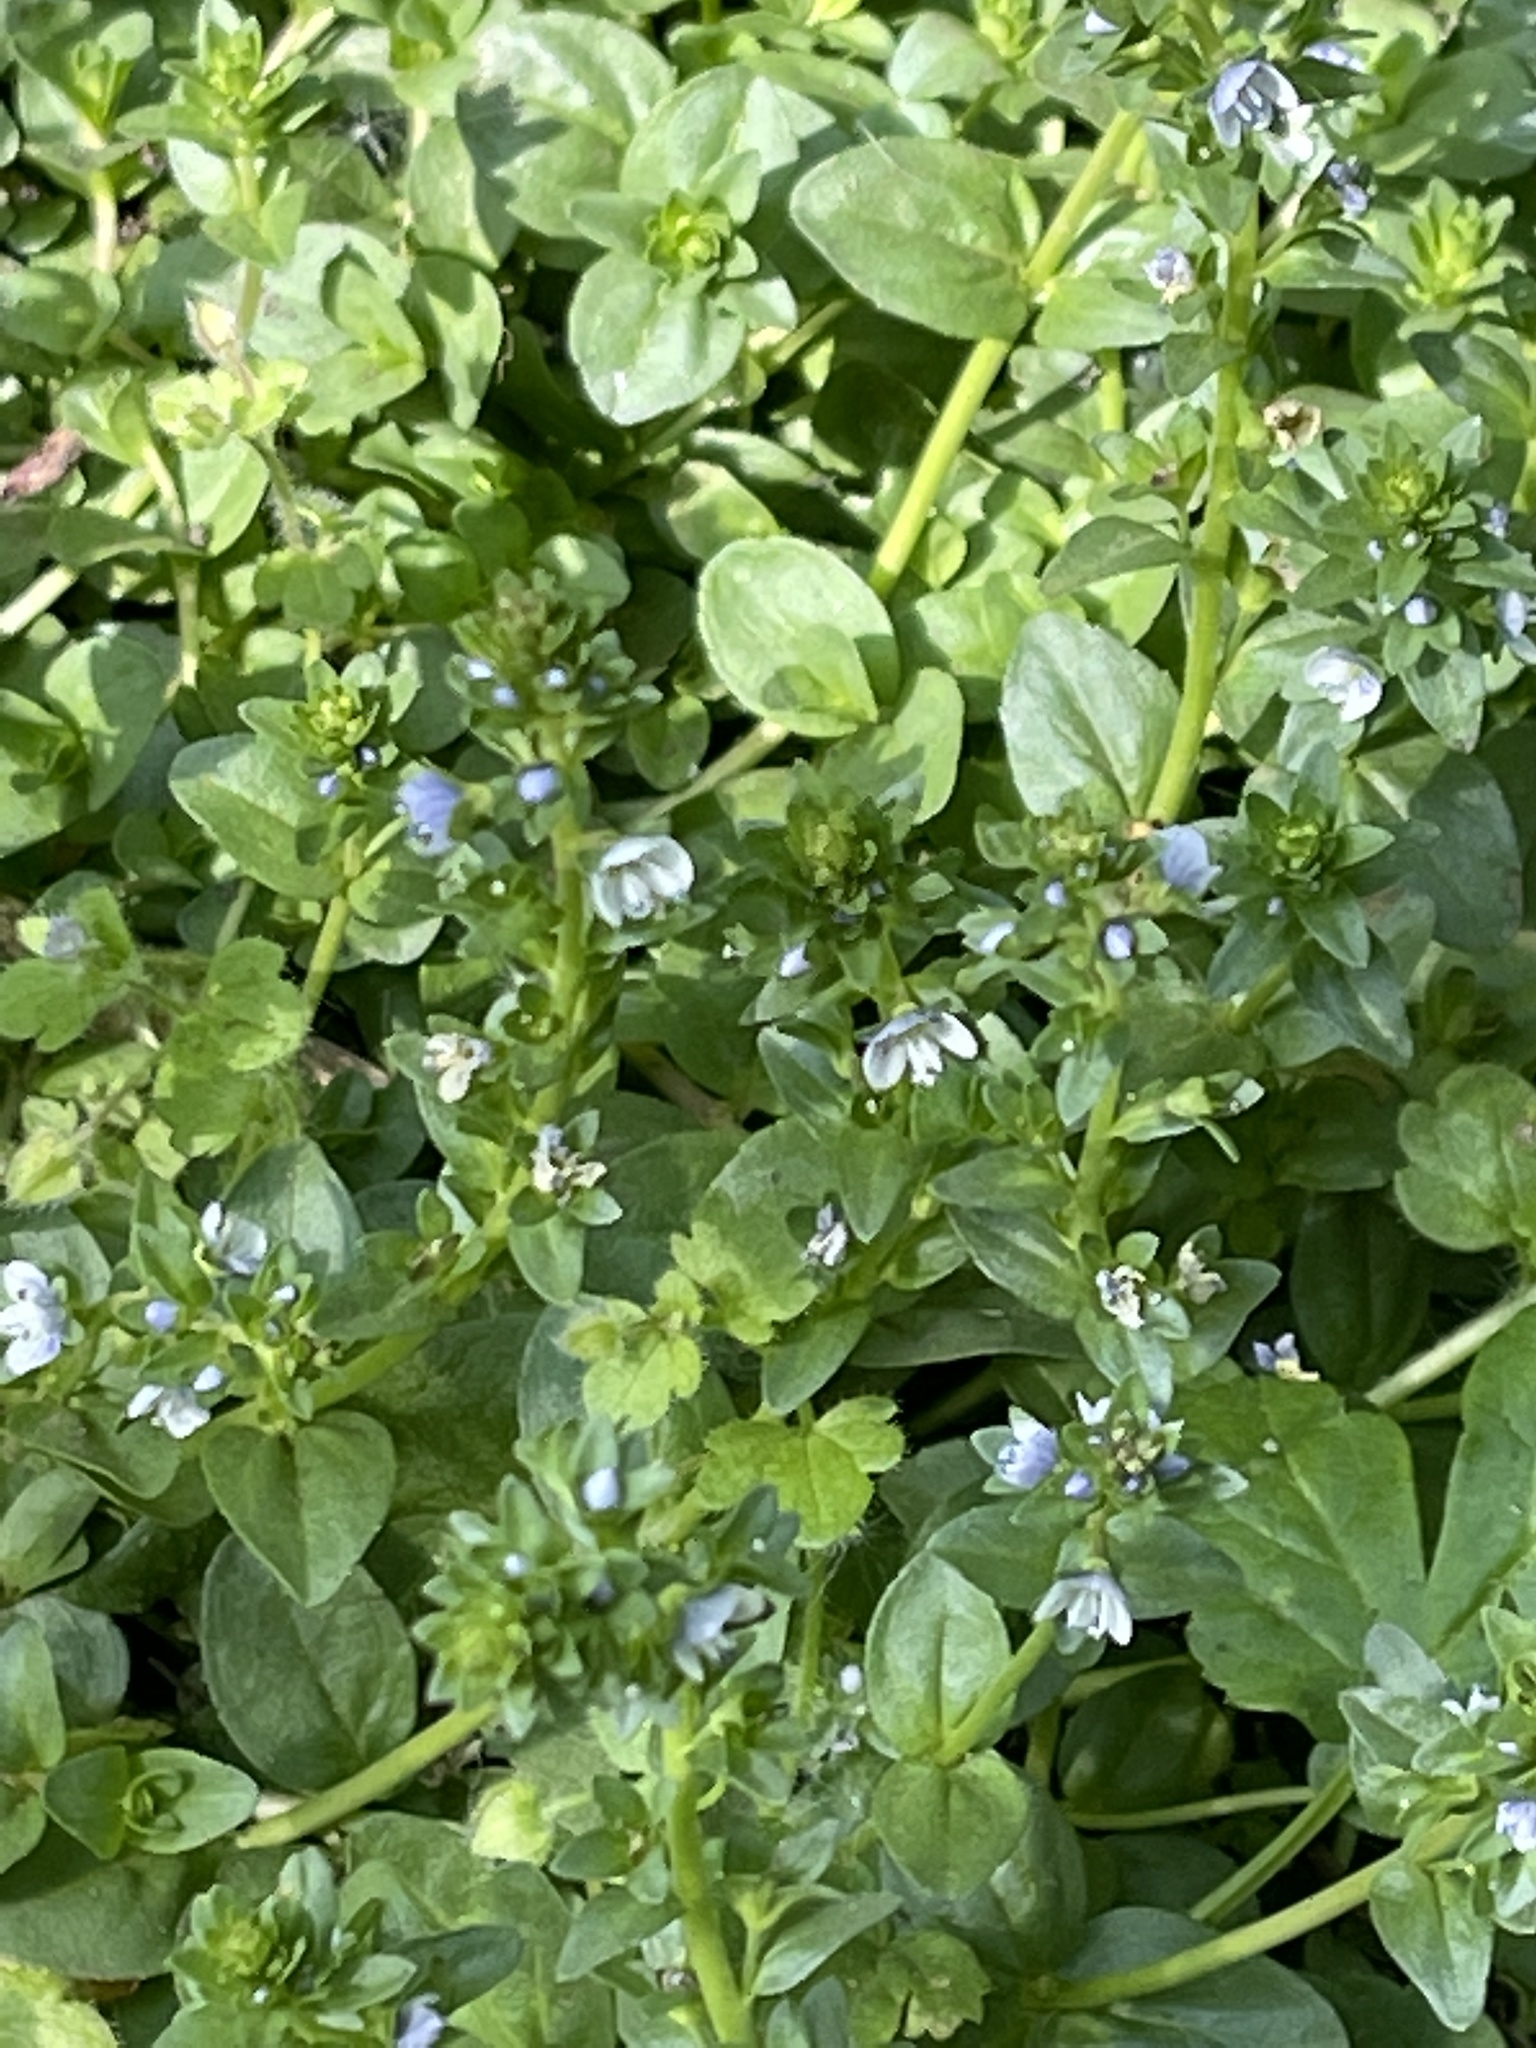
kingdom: Plantae
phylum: Tracheophyta
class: Magnoliopsida
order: Lamiales
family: Plantaginaceae
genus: Veronica
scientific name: Veronica serpyllifolia
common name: Thyme-leaved speedwell
